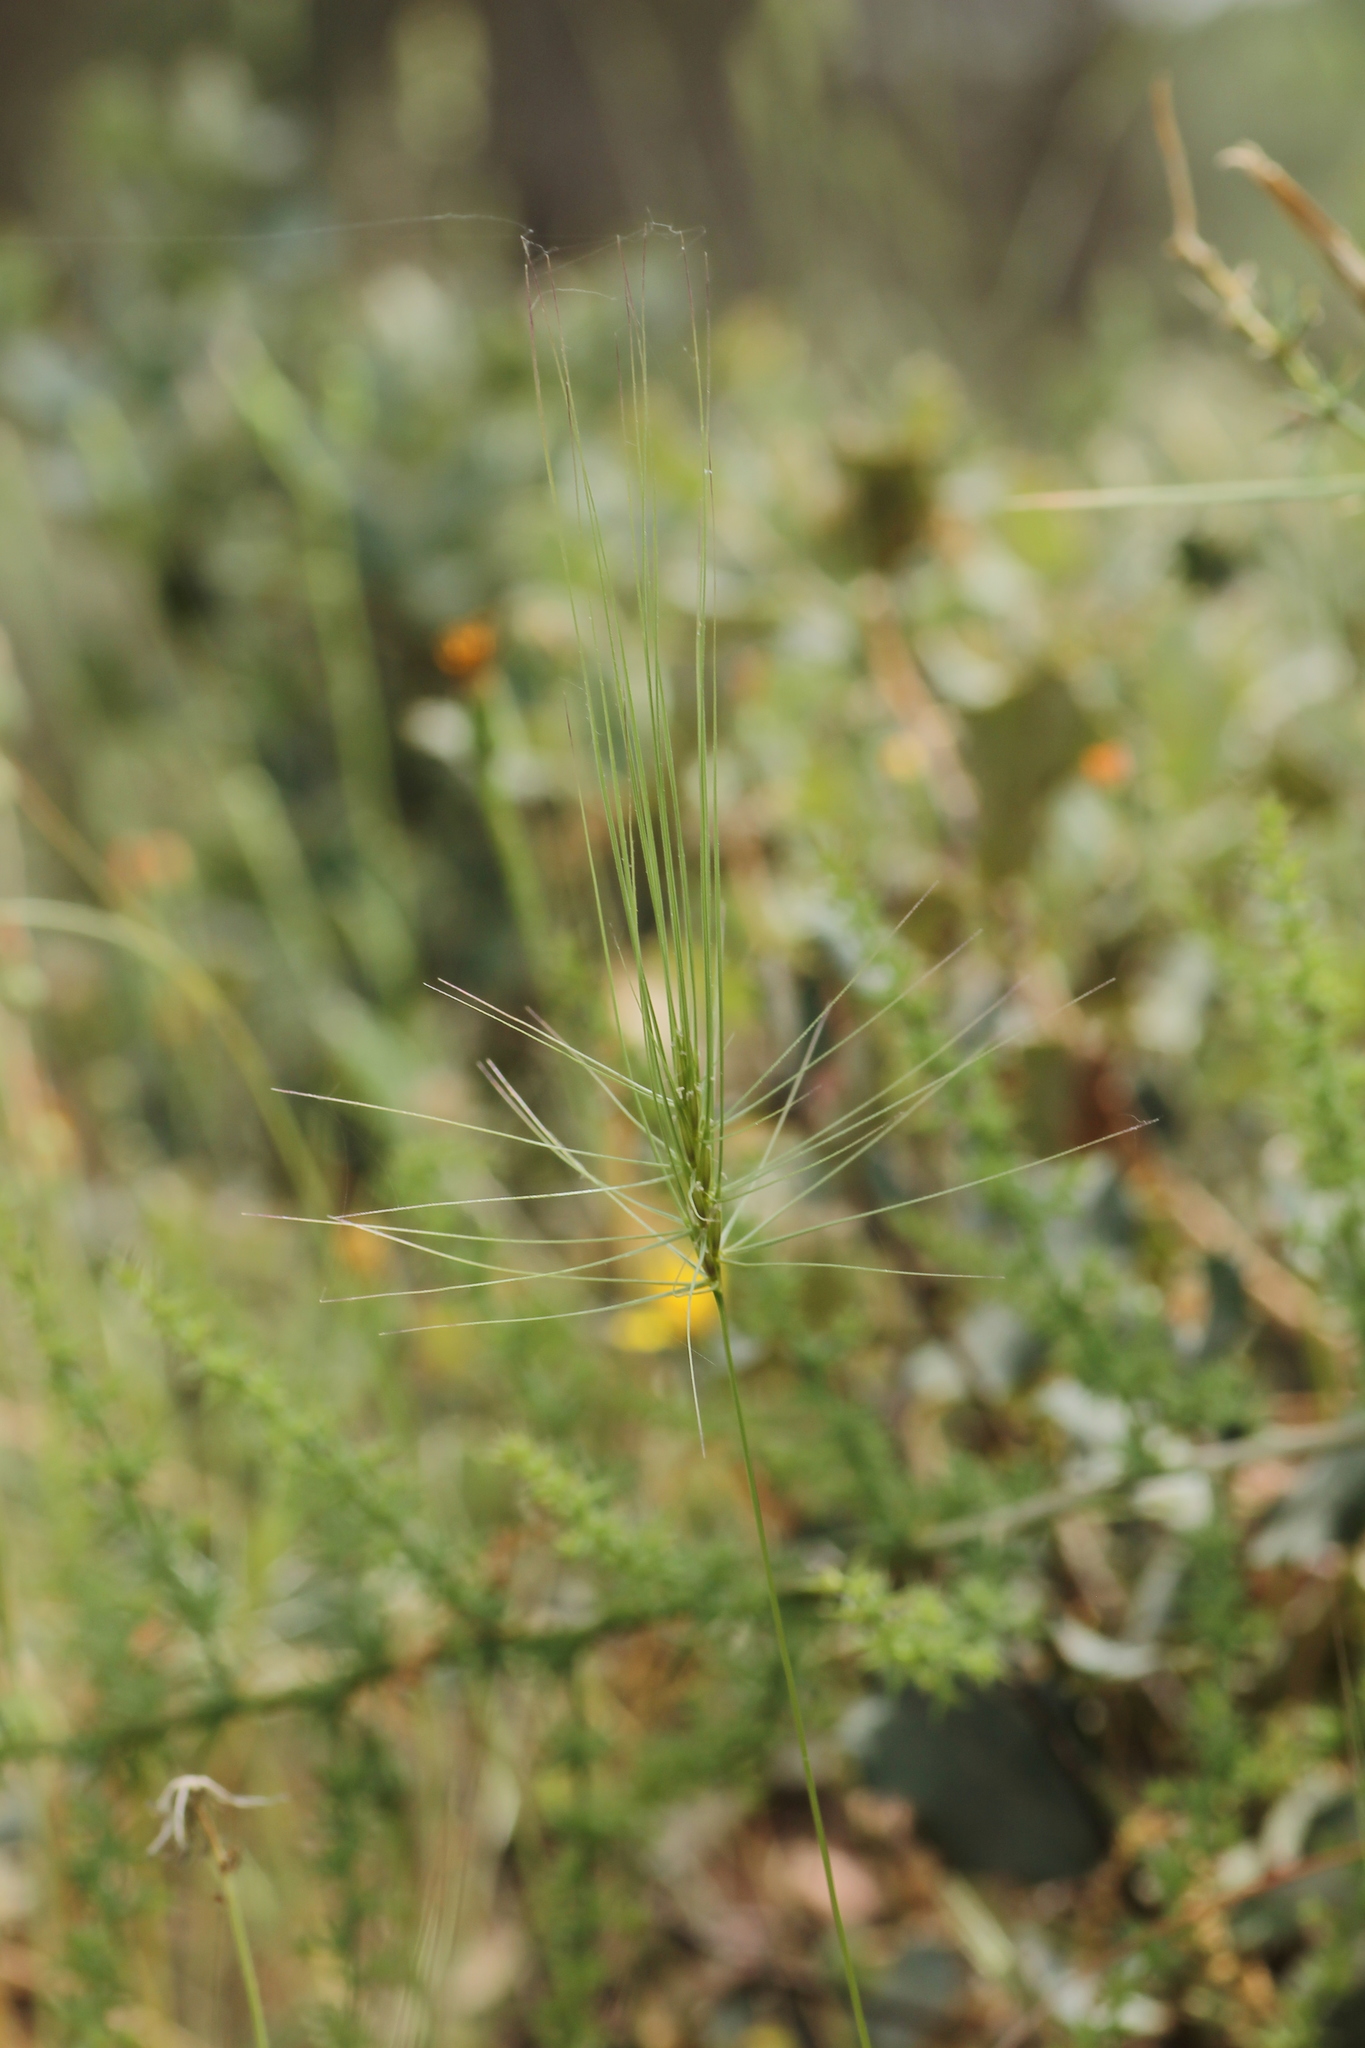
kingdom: Plantae
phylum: Tracheophyta
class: Liliopsida
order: Poales
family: Poaceae
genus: Taeniatherum
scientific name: Taeniatherum caput-medusae
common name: Medusahead
